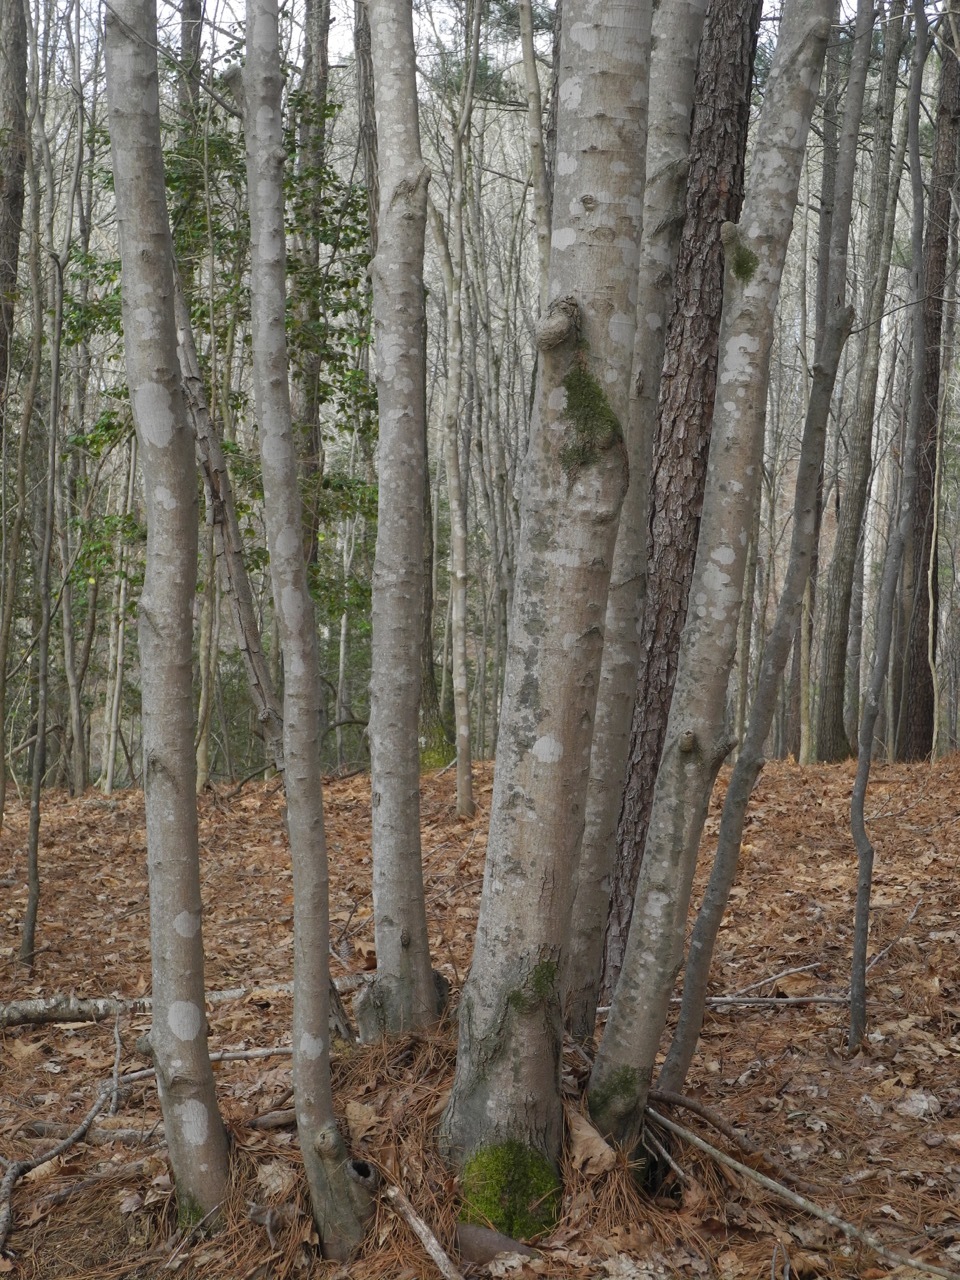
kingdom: Plantae
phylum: Tracheophyta
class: Magnoliopsida
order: Sapindales
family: Sapindaceae
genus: Acer
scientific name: Acer freemanii
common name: Freeman maple
